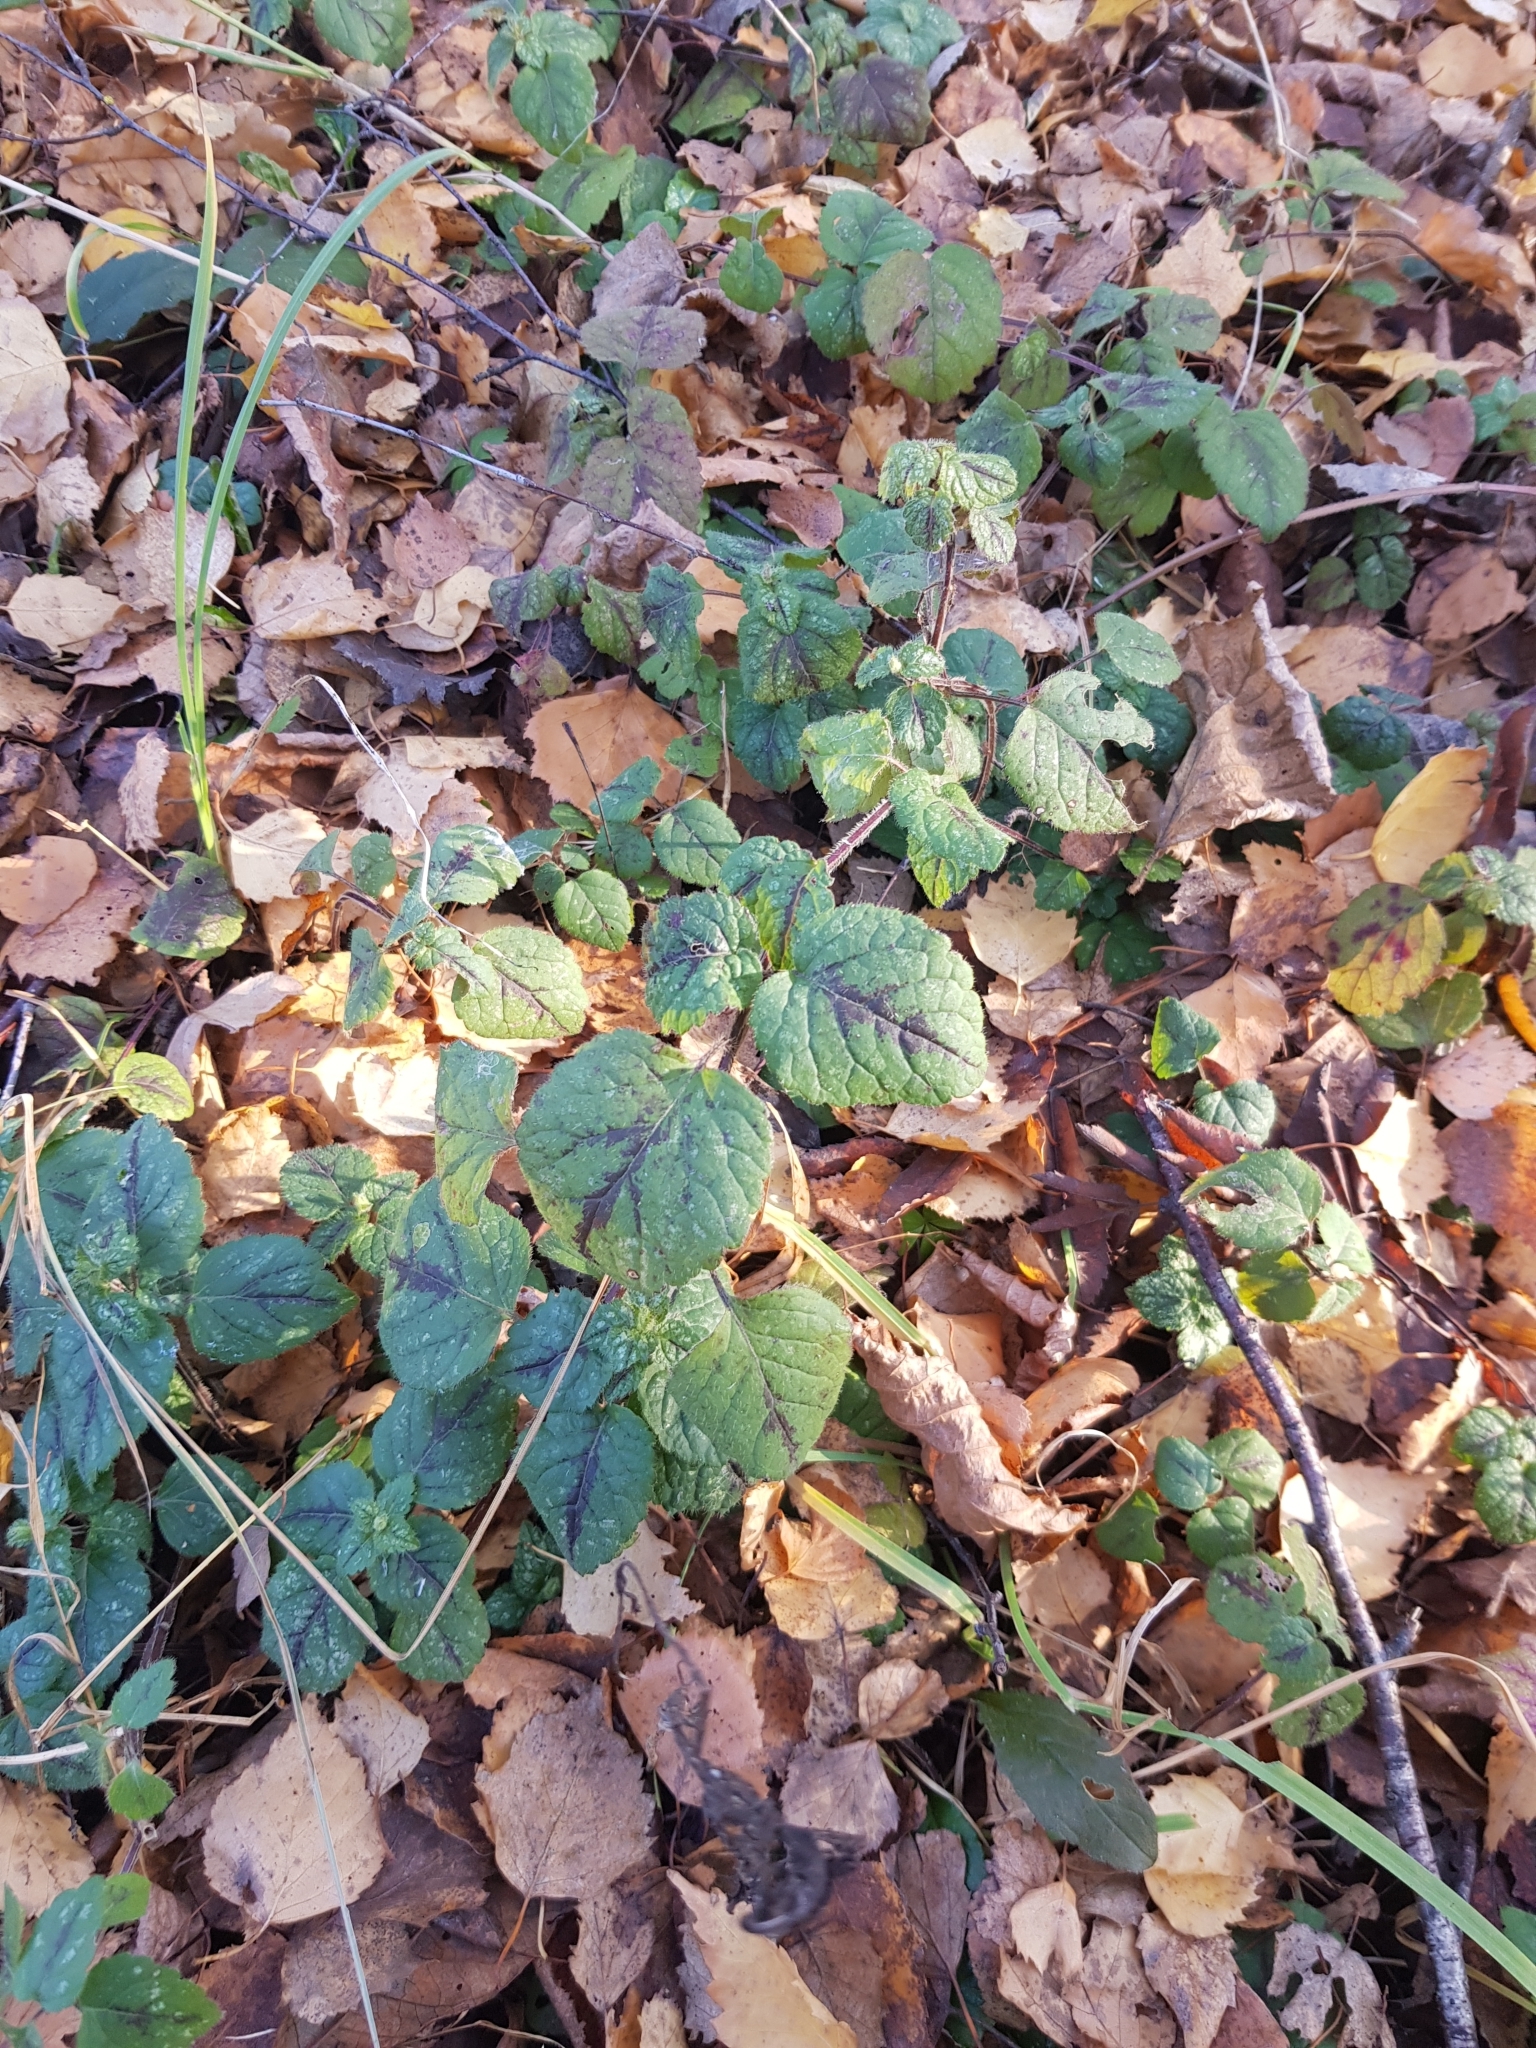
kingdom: Plantae
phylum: Tracheophyta
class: Magnoliopsida
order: Lamiales
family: Lamiaceae
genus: Lamium
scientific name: Lamium galeobdolon
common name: Yellow archangel
